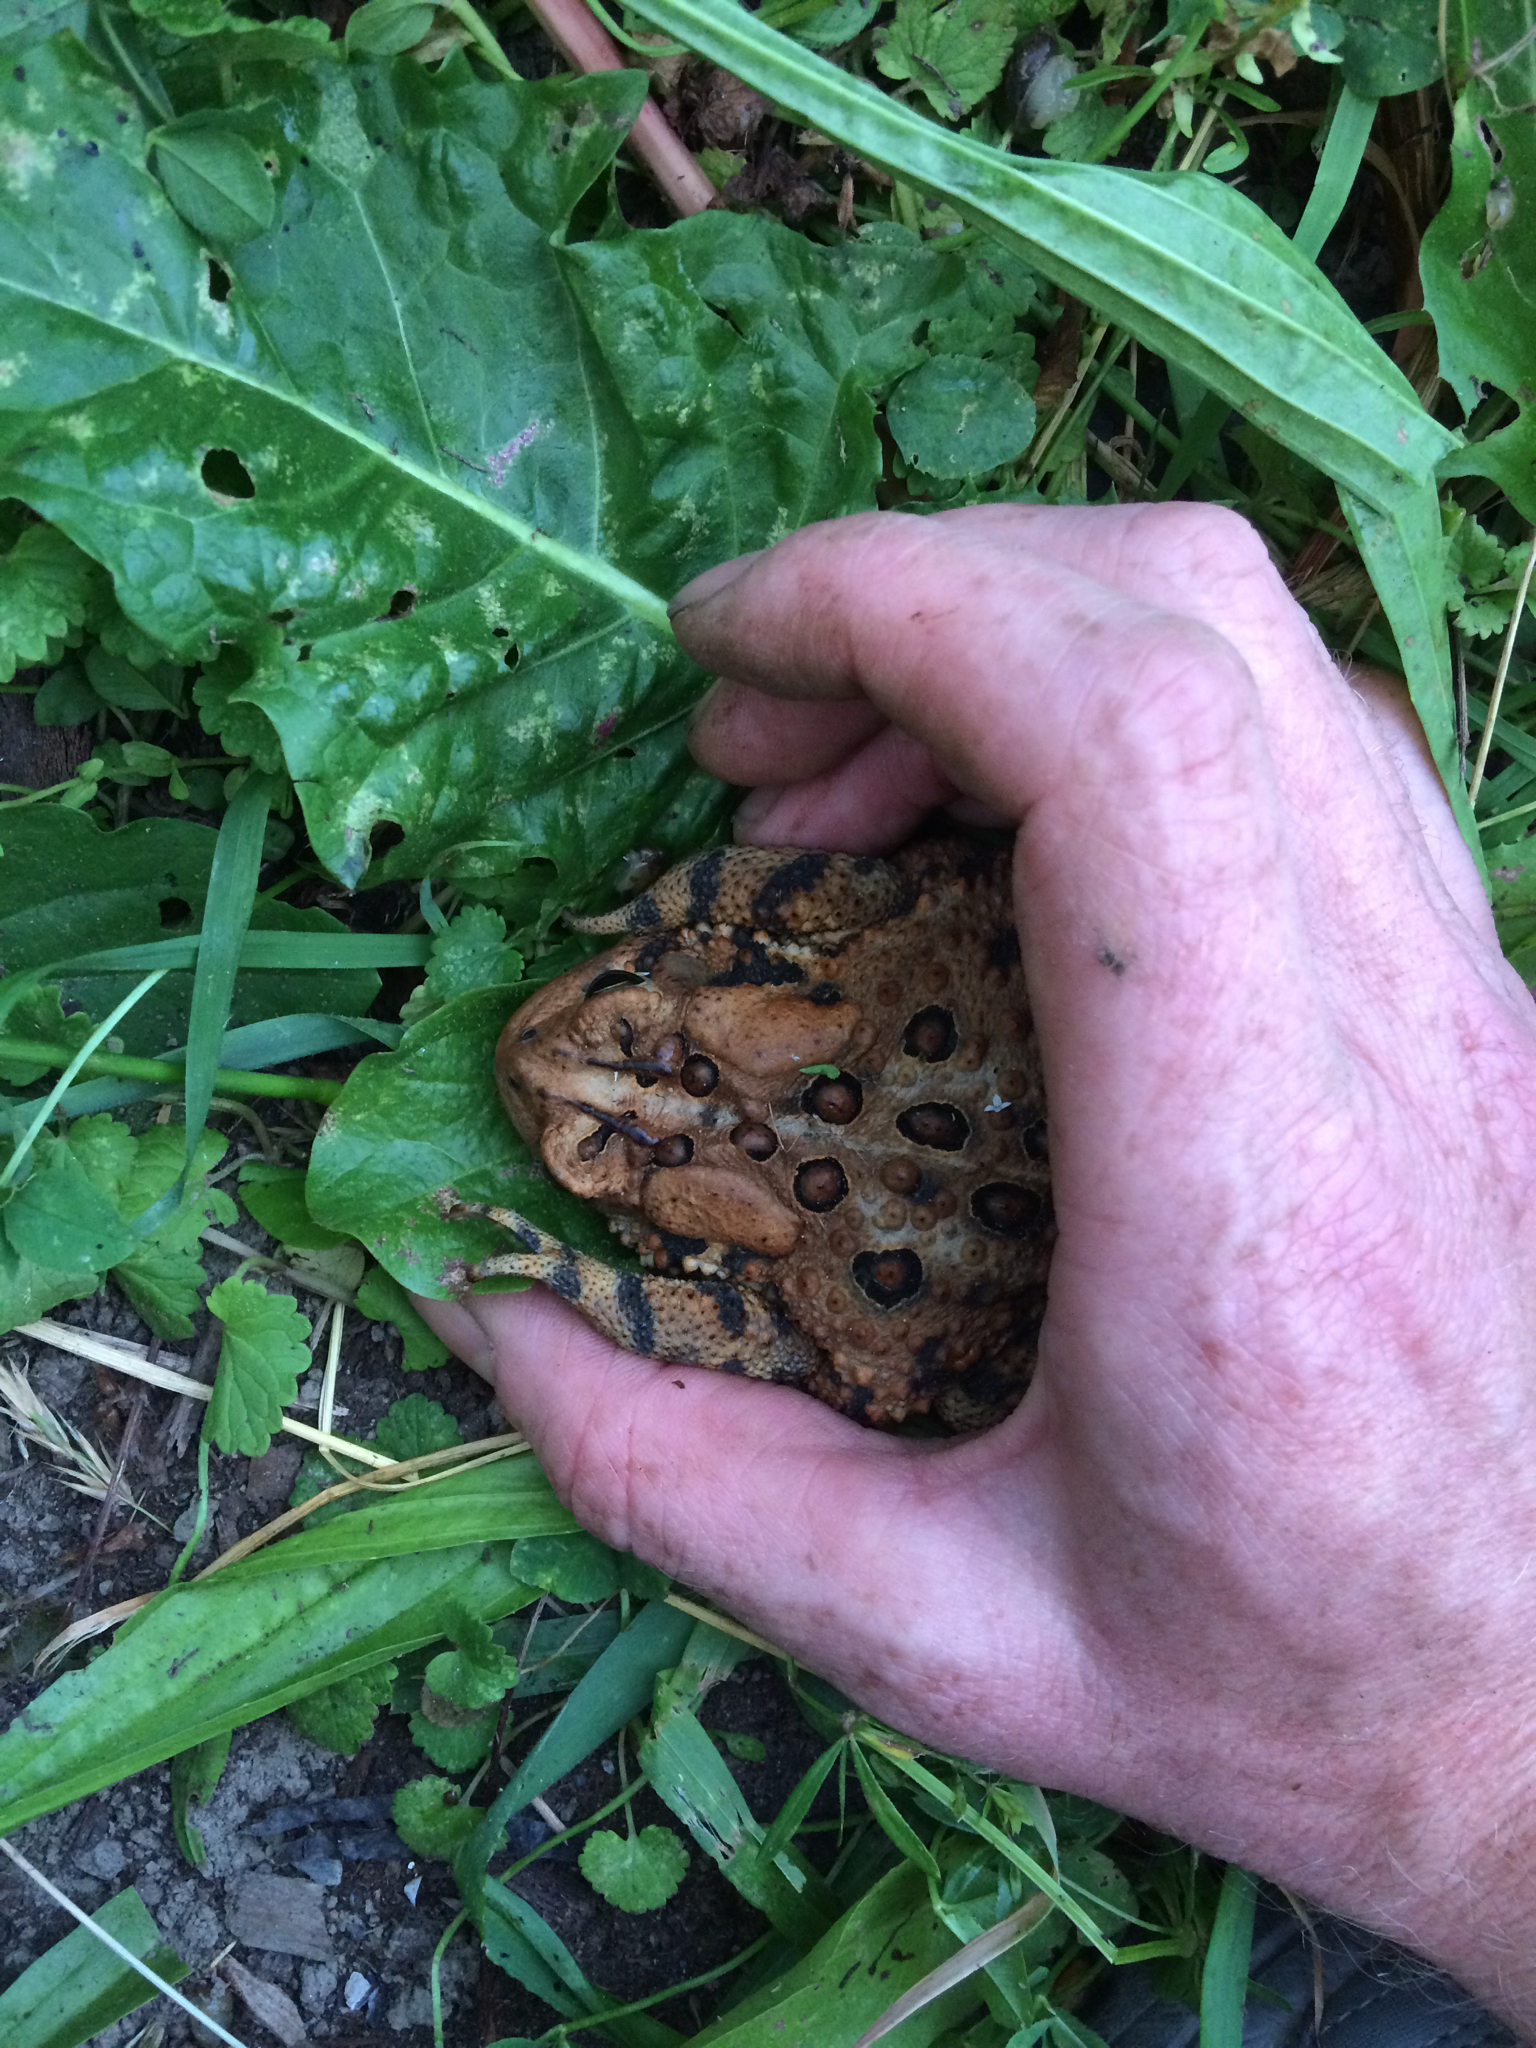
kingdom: Animalia
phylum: Chordata
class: Amphibia
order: Anura
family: Bufonidae
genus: Anaxyrus
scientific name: Anaxyrus americanus
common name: American toad
